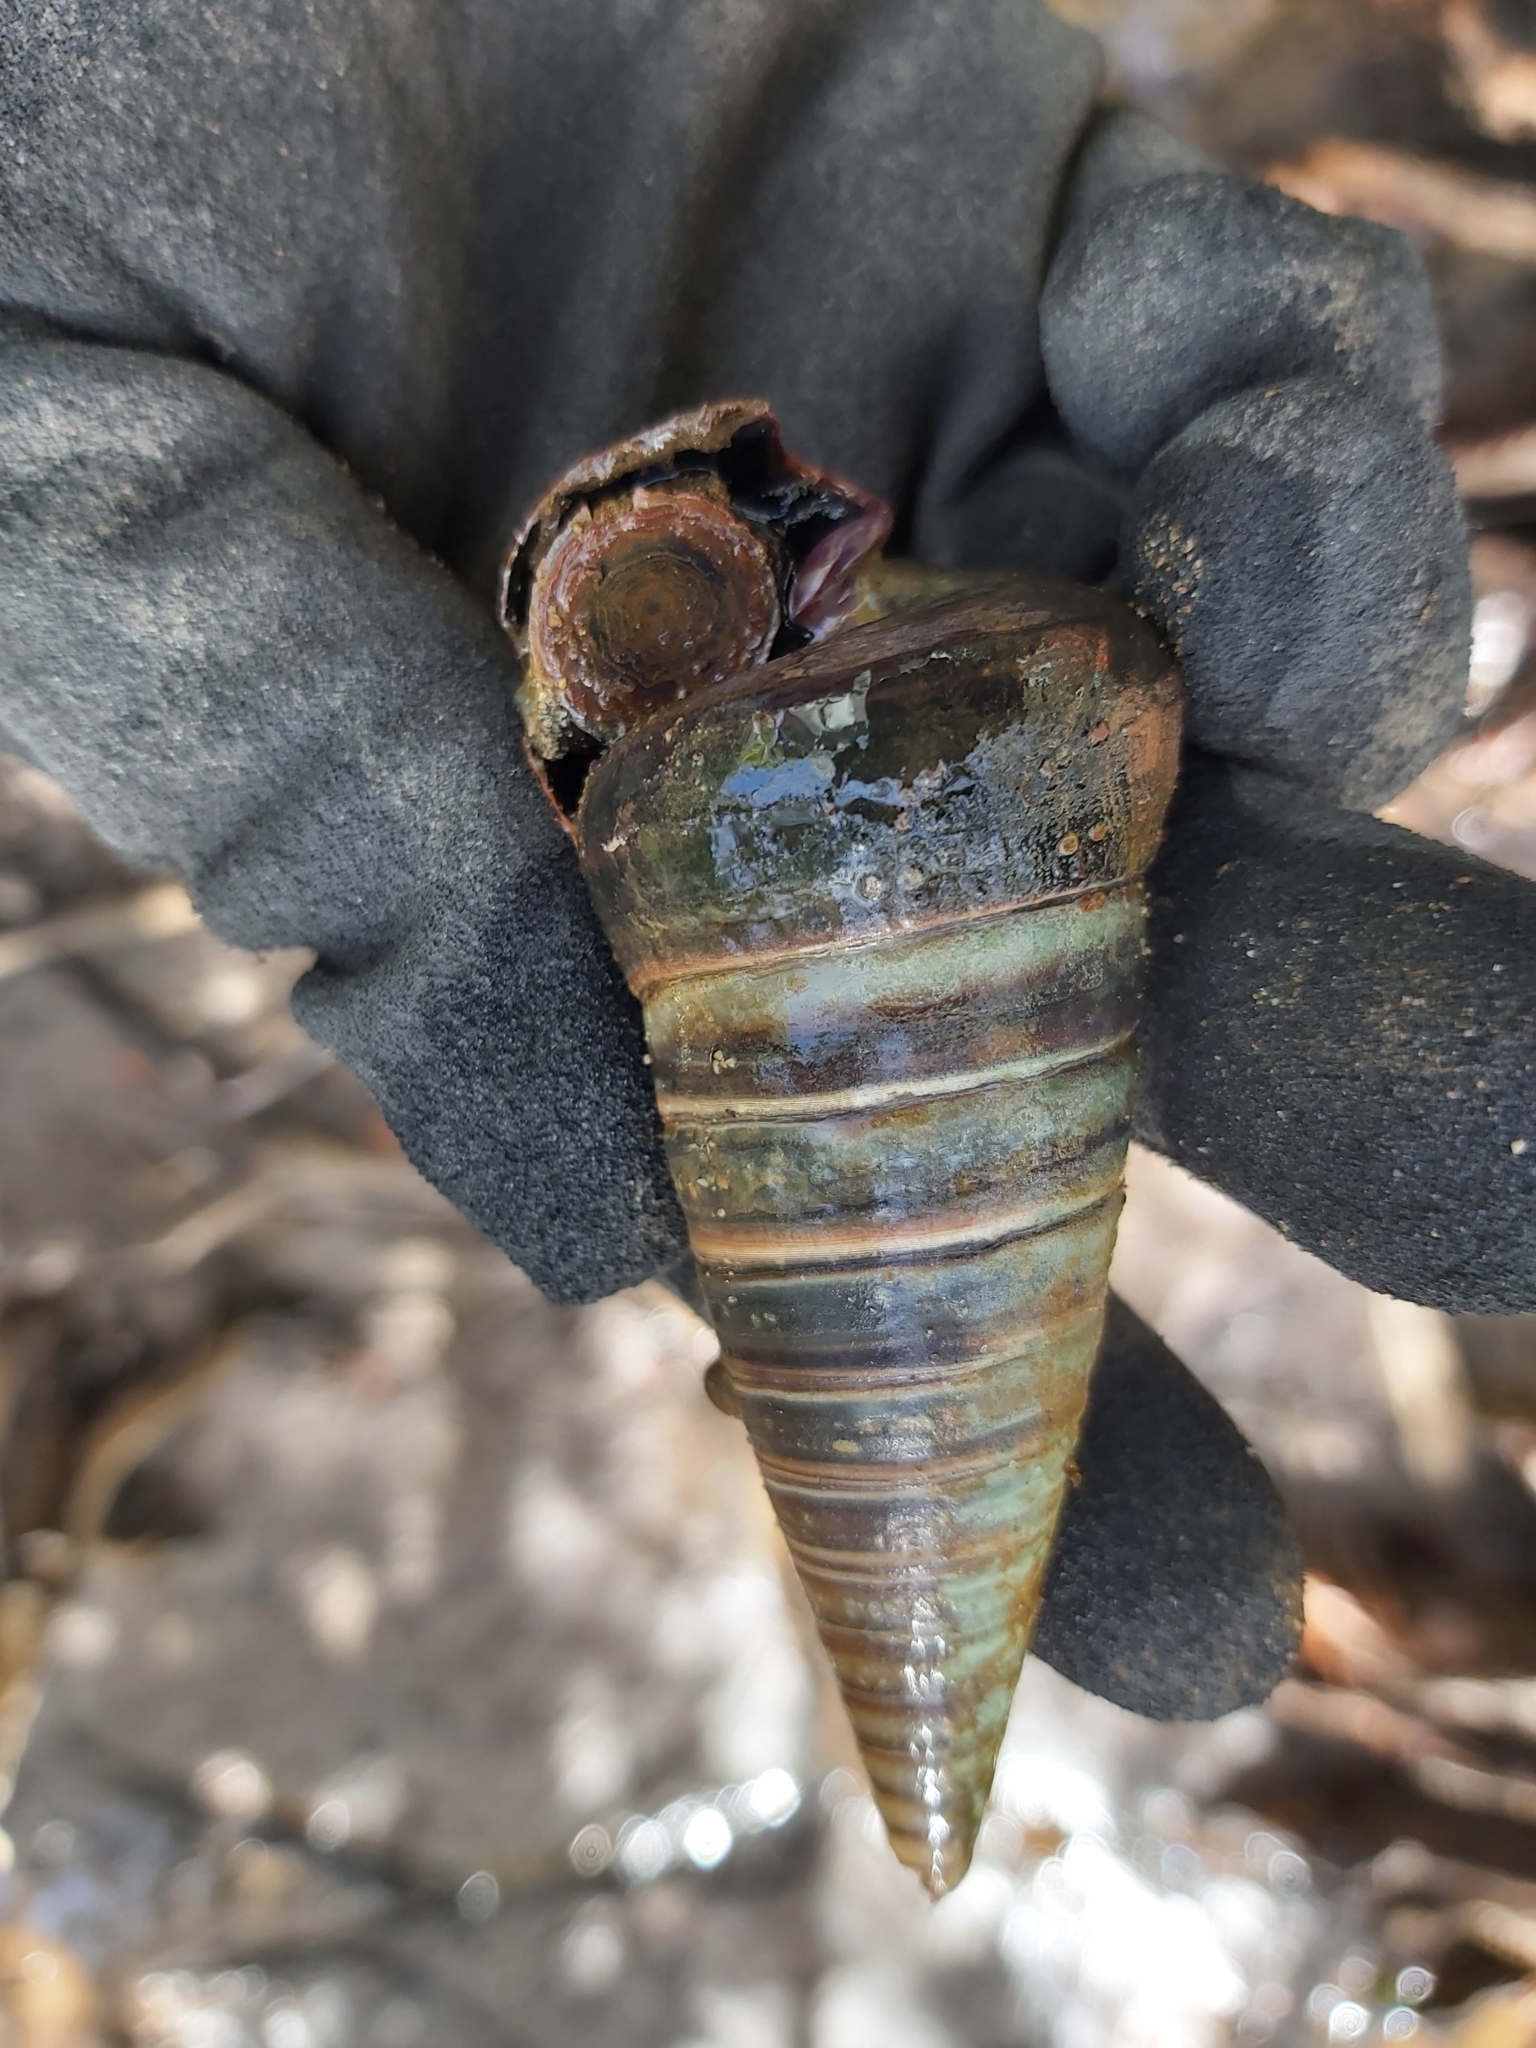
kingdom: Animalia
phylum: Mollusca
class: Gastropoda
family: Potamididae
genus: Telescopium
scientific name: Telescopium telescopium
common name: Telescope creeper
